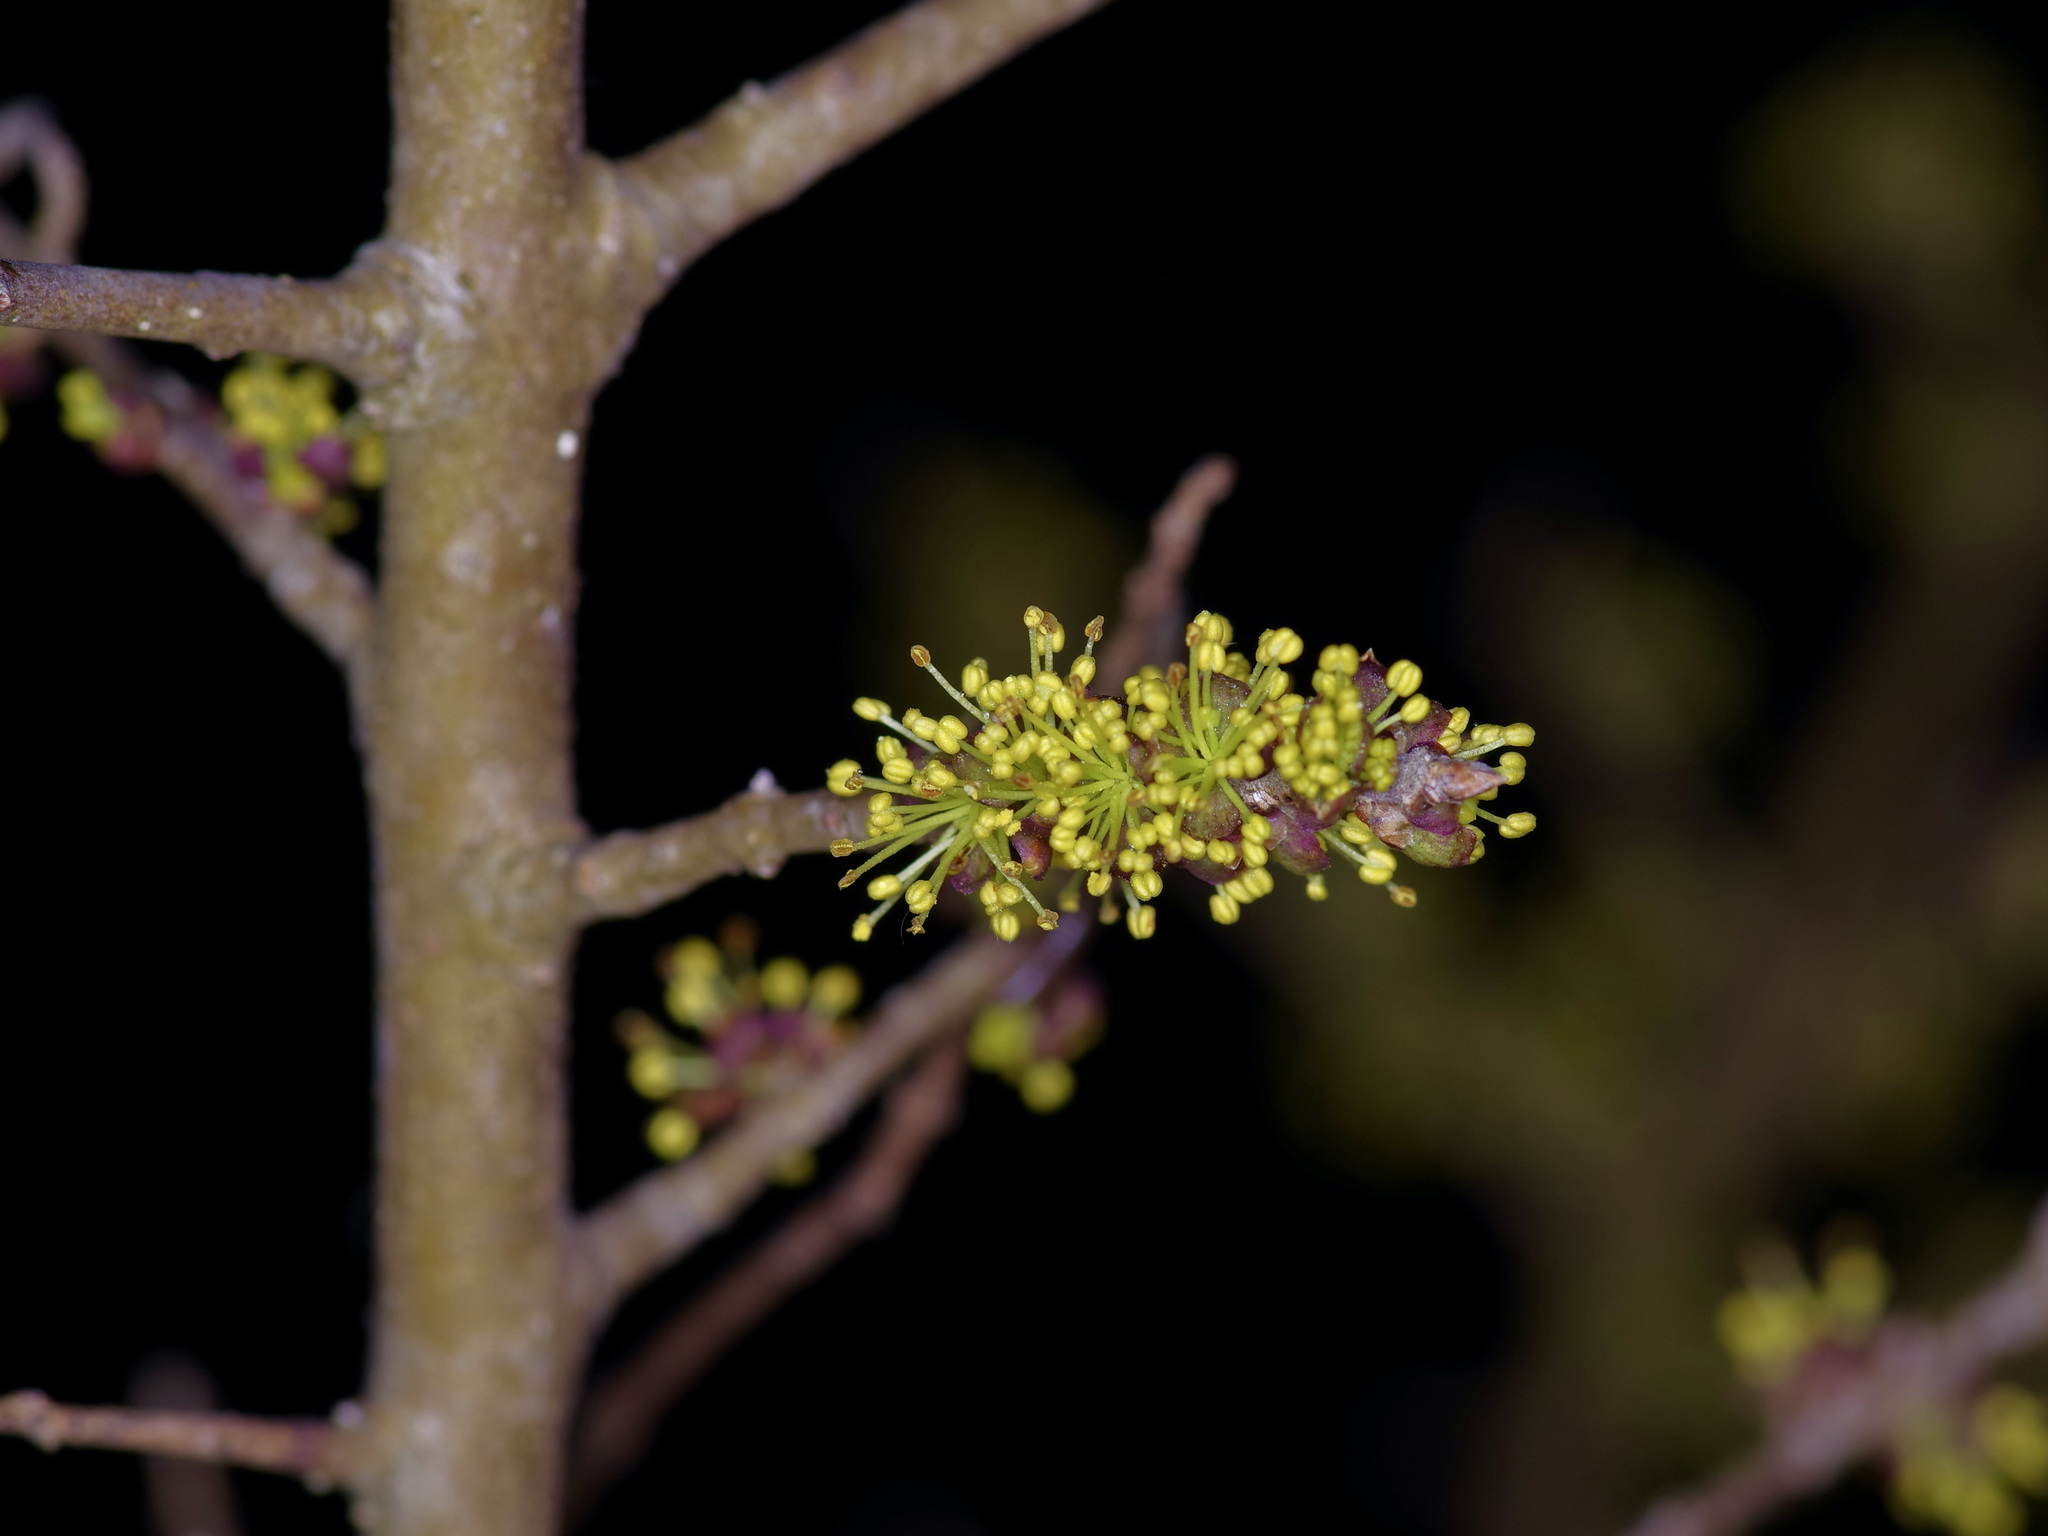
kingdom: Plantae
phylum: Tracheophyta
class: Magnoliopsida
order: Lamiales
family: Oleaceae
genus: Forestiera
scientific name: Forestiera pubescens
